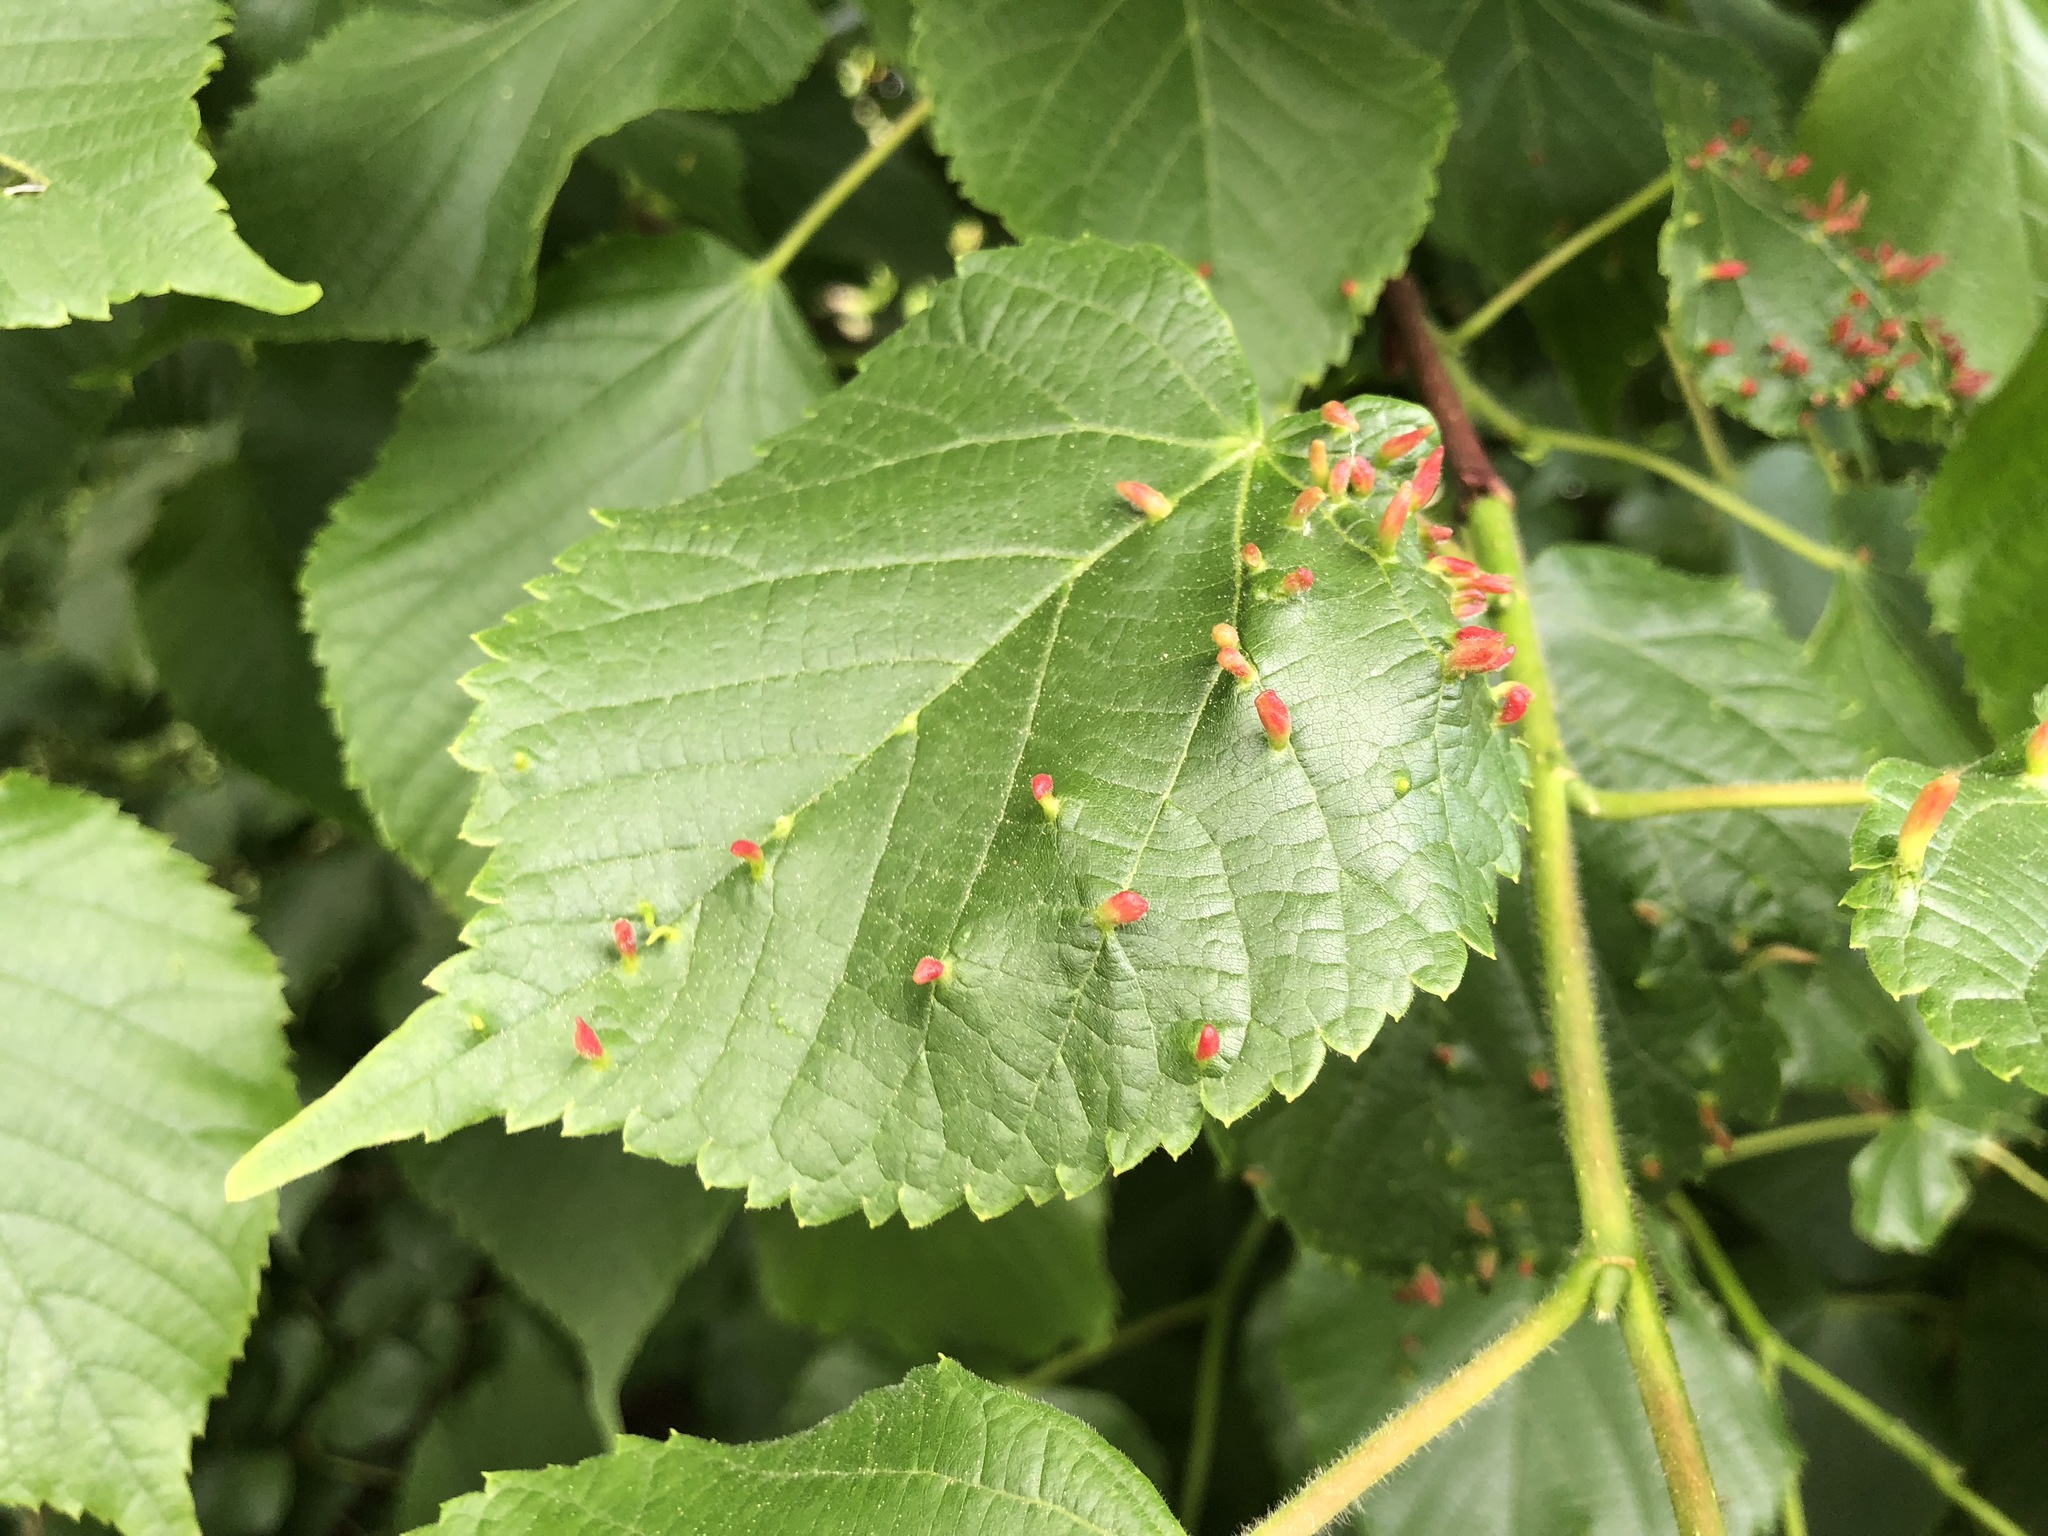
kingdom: Animalia
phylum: Arthropoda
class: Arachnida
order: Trombidiformes
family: Eriophyidae
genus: Eriophyes
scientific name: Eriophyes tiliae
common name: Red nail gall mite
